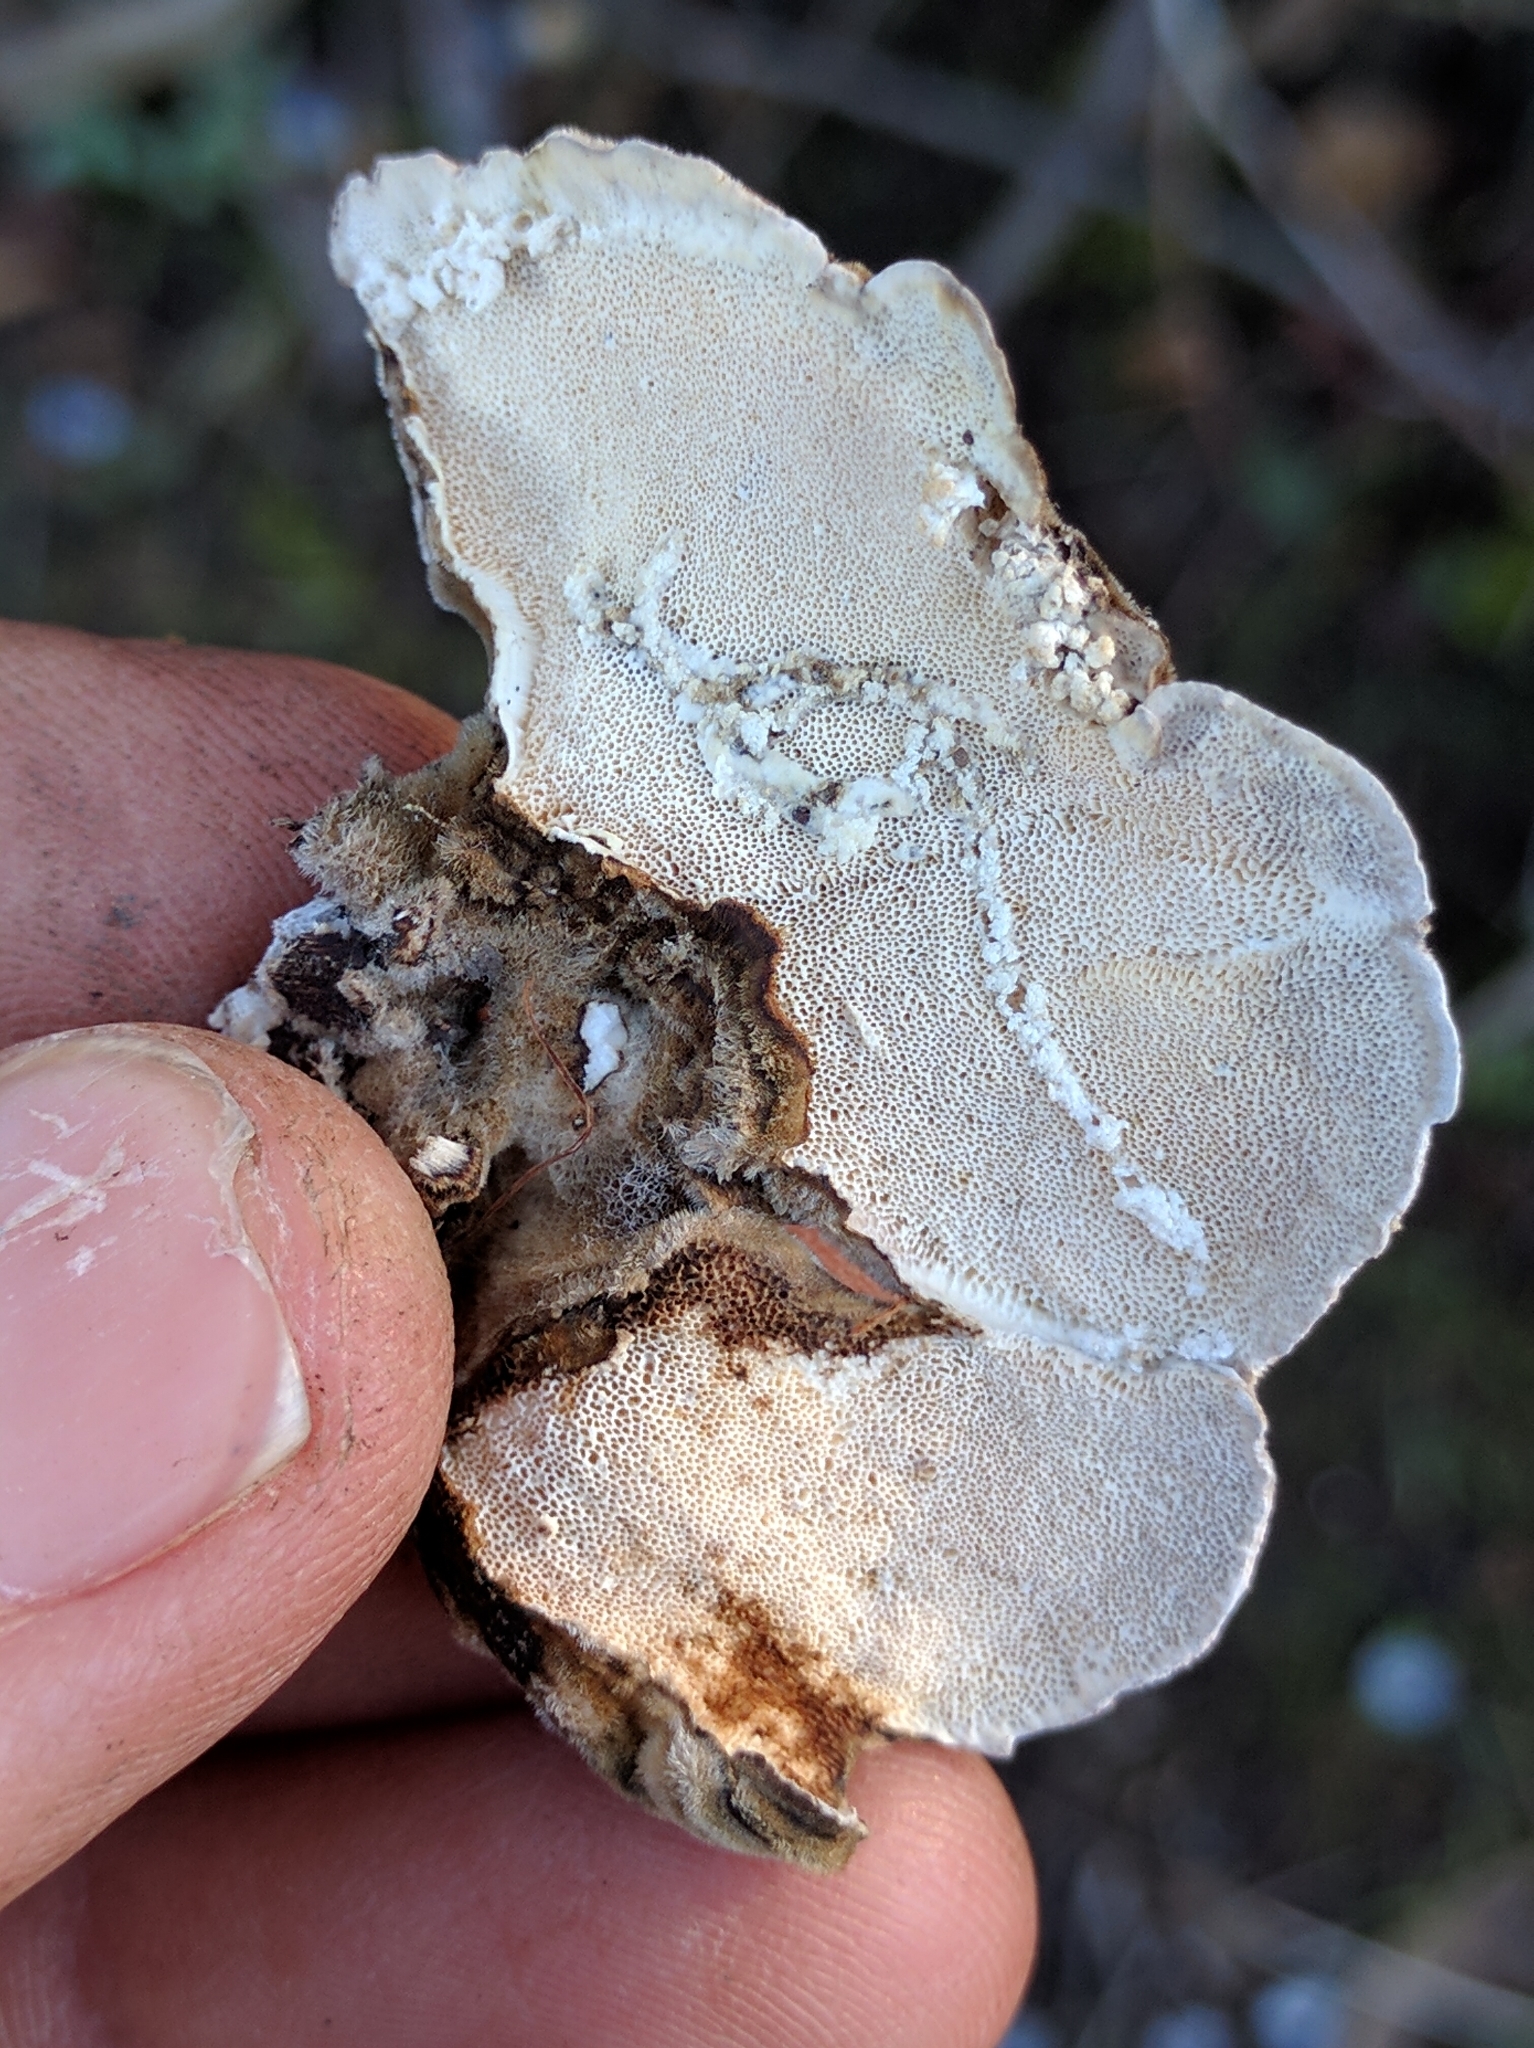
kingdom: Fungi
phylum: Basidiomycota
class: Agaricomycetes
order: Polyporales
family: Polyporaceae
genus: Trametes
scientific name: Trametes versicolor
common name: Turkeytail
